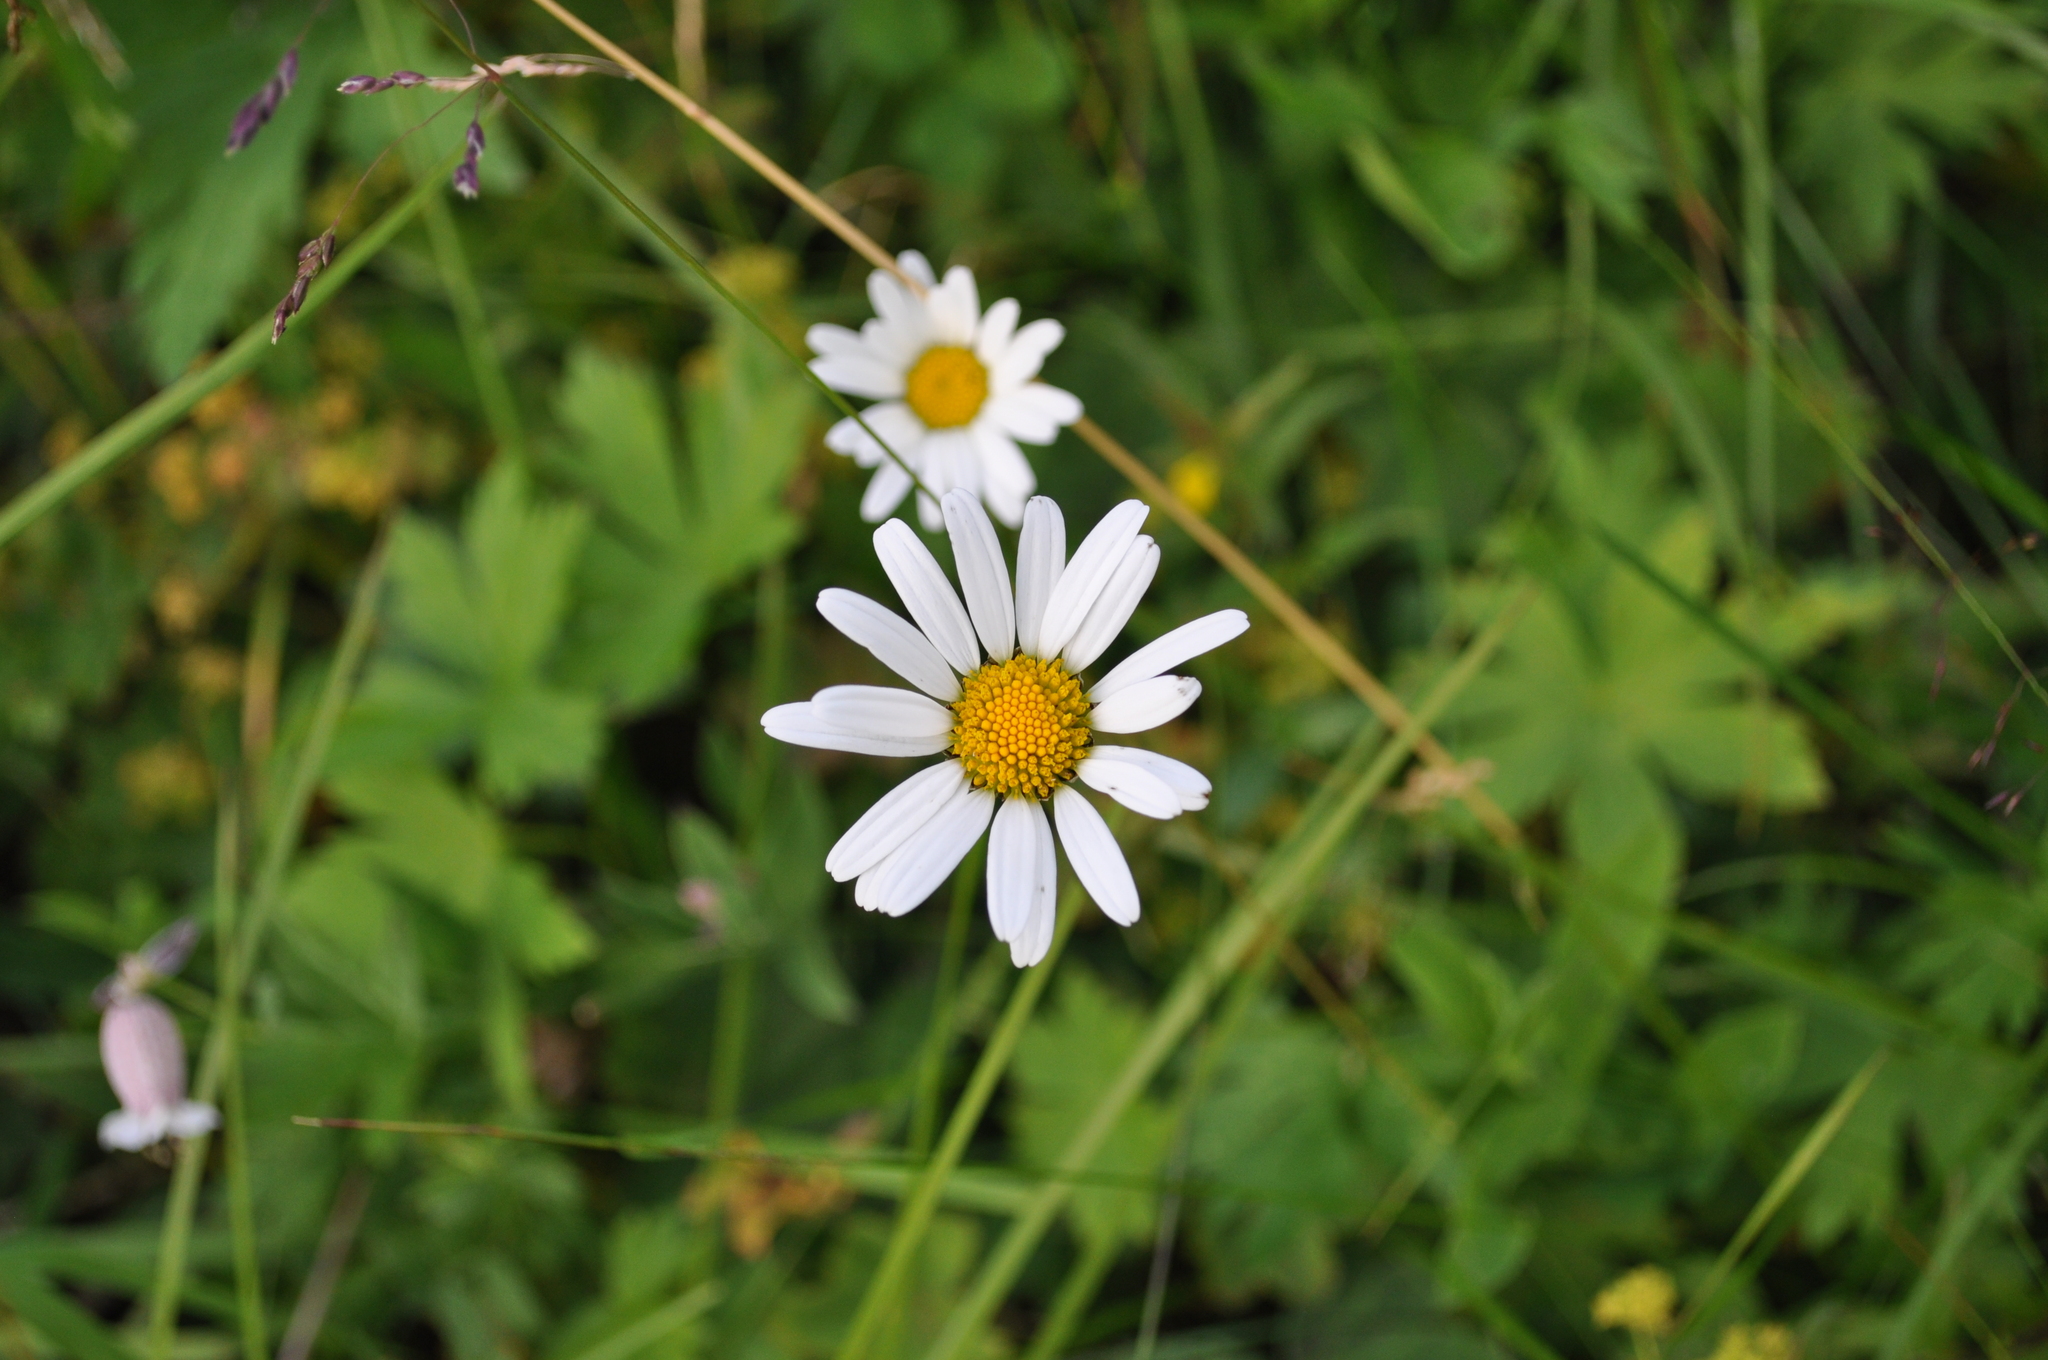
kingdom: Plantae
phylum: Tracheophyta
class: Magnoliopsida
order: Asterales
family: Asteraceae
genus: Leucanthemum
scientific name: Leucanthemum vulgare
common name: Oxeye daisy
